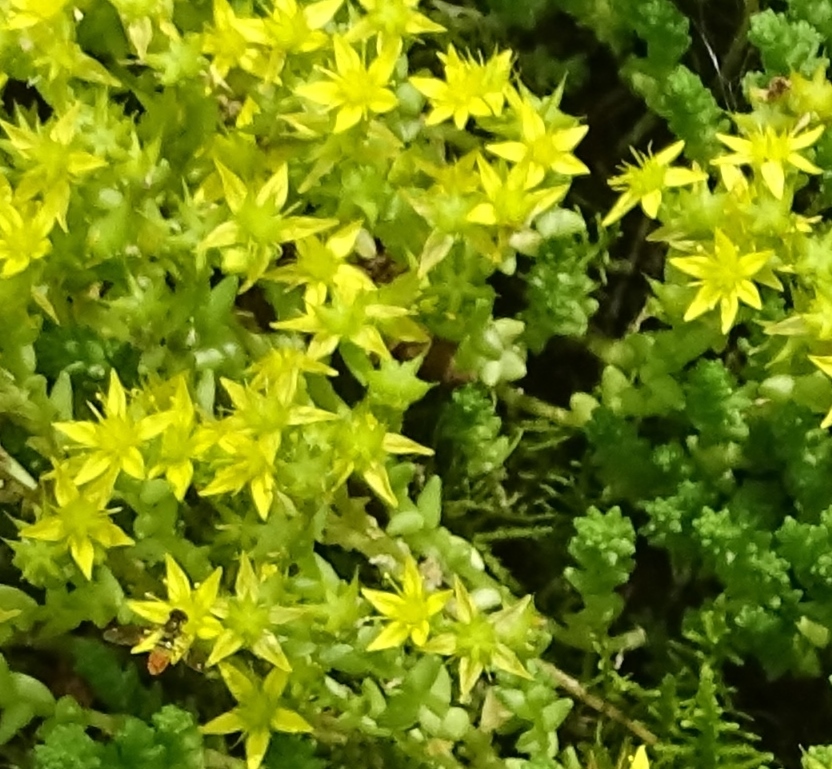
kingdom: Plantae
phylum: Tracheophyta
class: Magnoliopsida
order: Saxifragales
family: Crassulaceae
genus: Sedum
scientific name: Sedum acre
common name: Biting stonecrop
